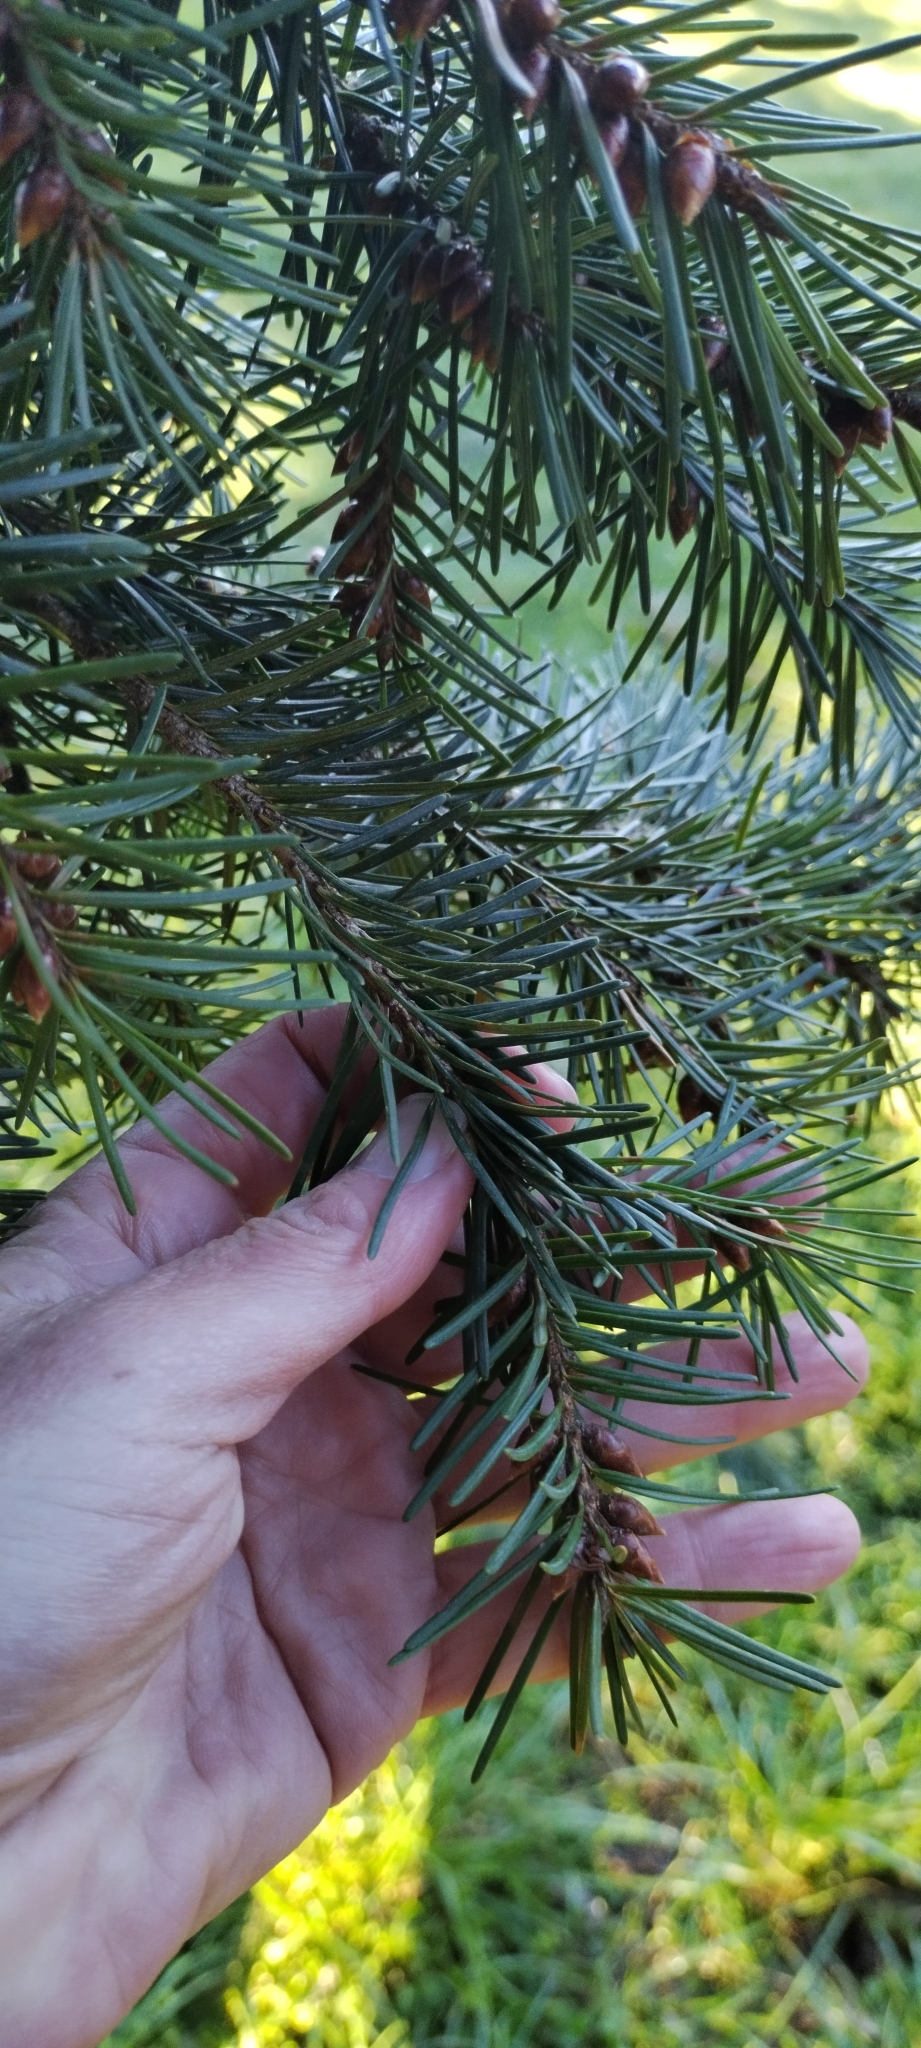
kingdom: Plantae
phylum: Tracheophyta
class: Pinopsida
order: Pinales
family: Pinaceae
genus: Pseudotsuga
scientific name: Pseudotsuga menziesii
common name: Douglas fir
